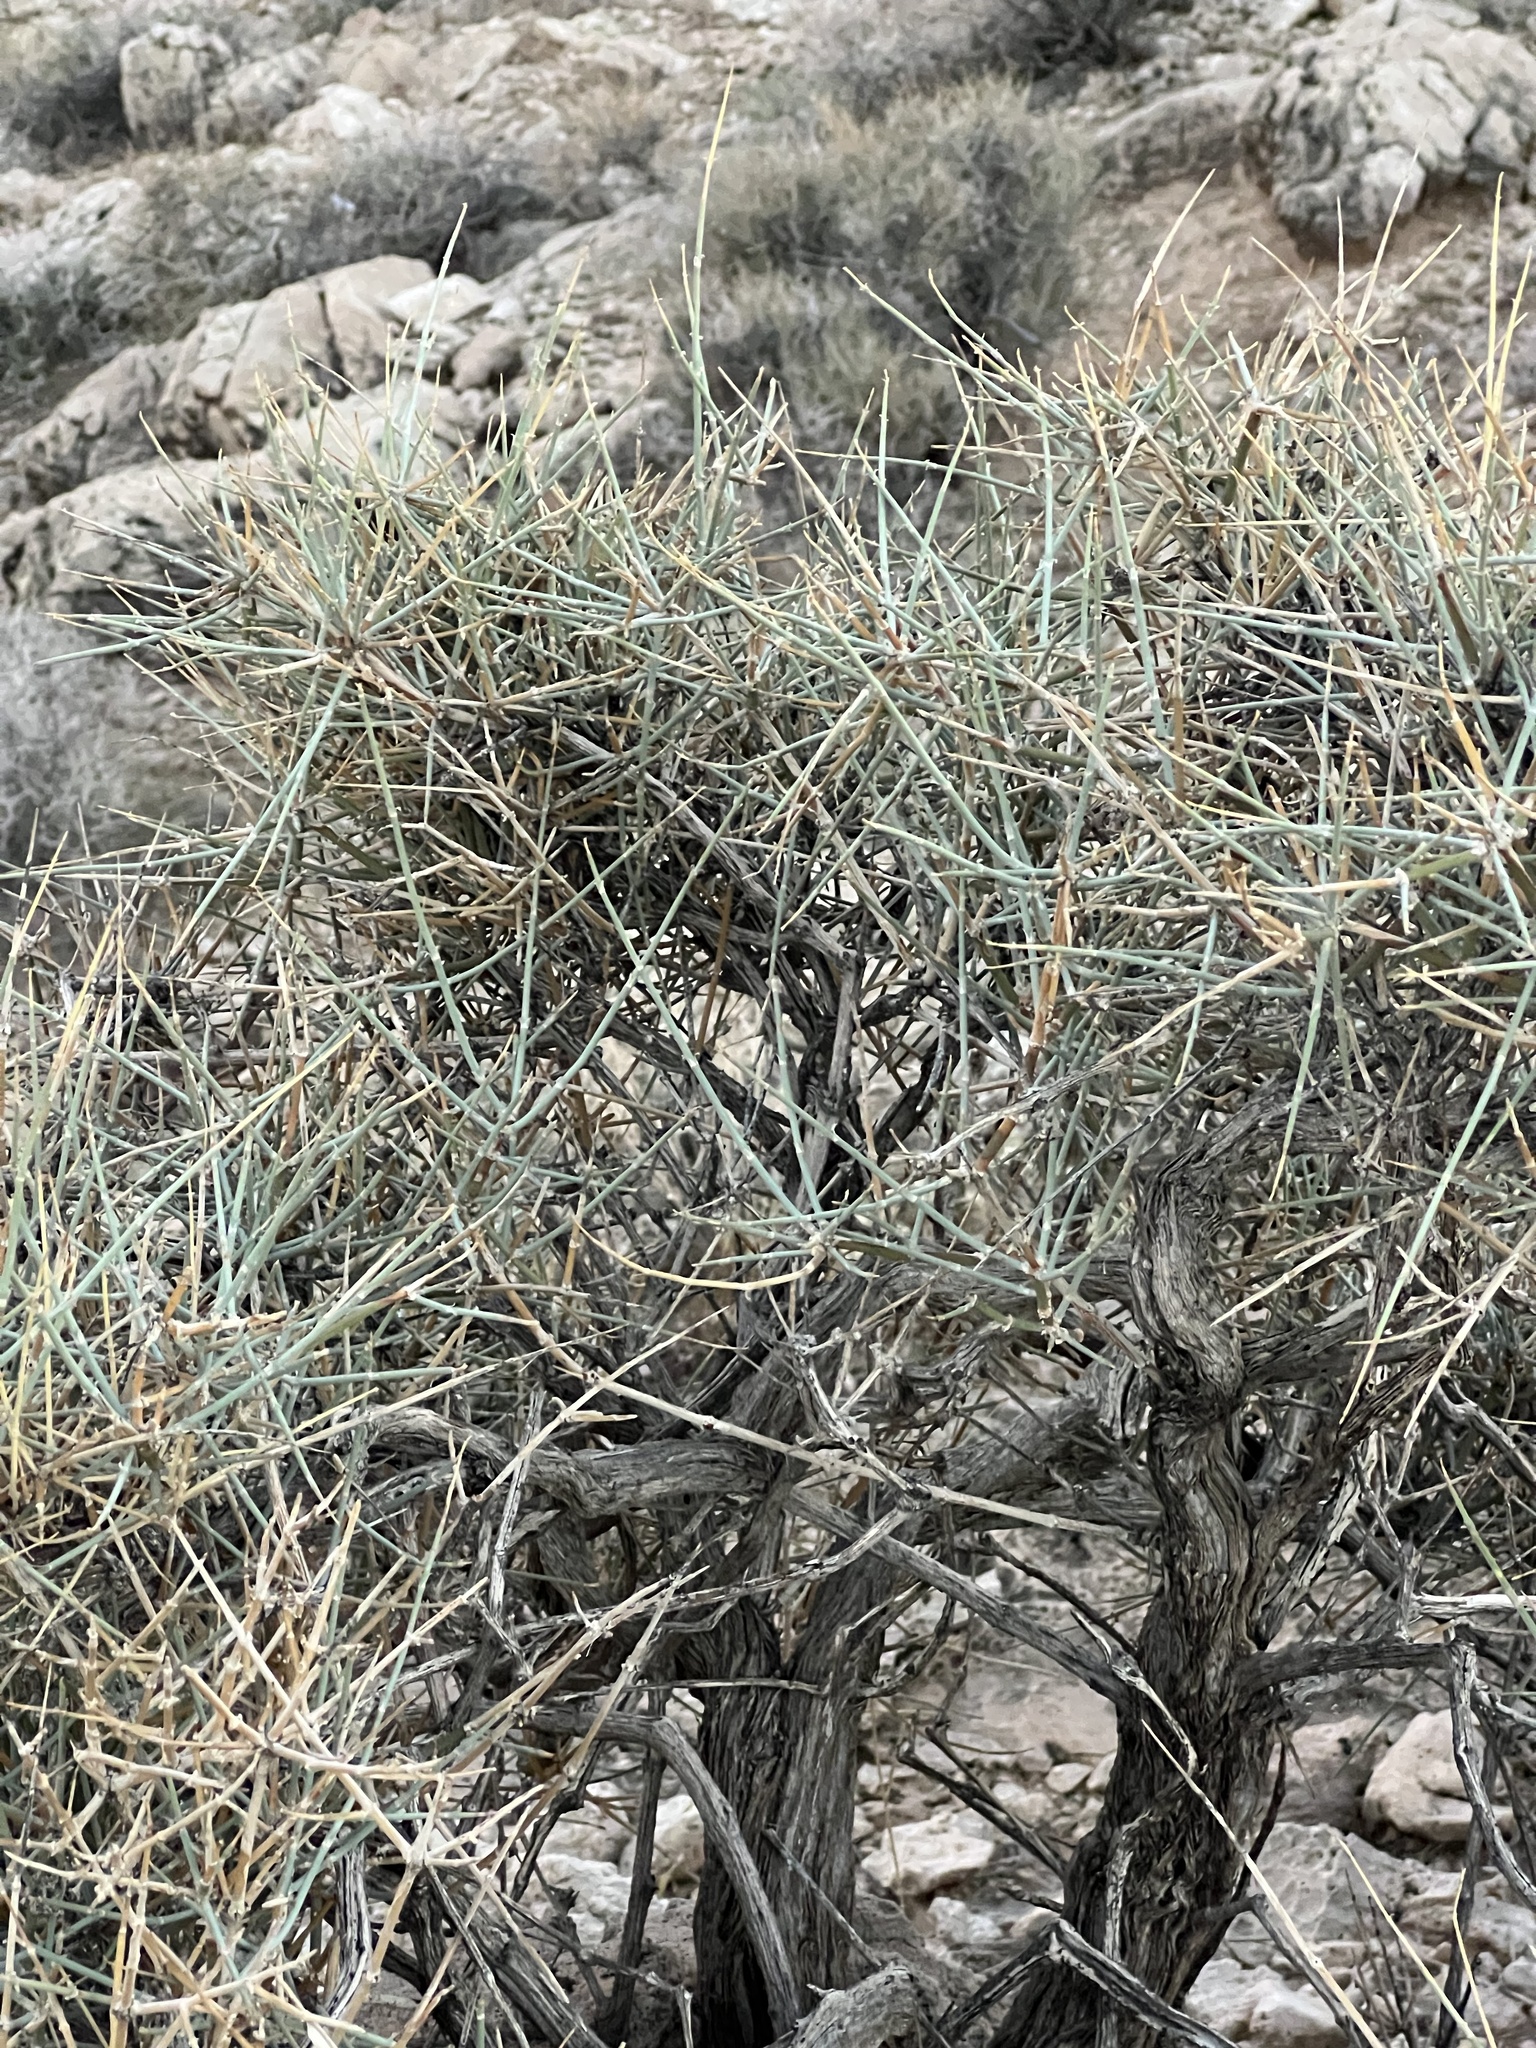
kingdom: Plantae
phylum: Tracheophyta
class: Gnetopsida
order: Ephedrales
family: Ephedraceae
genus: Ephedra
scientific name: Ephedra nevadensis
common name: Gray ephedra
